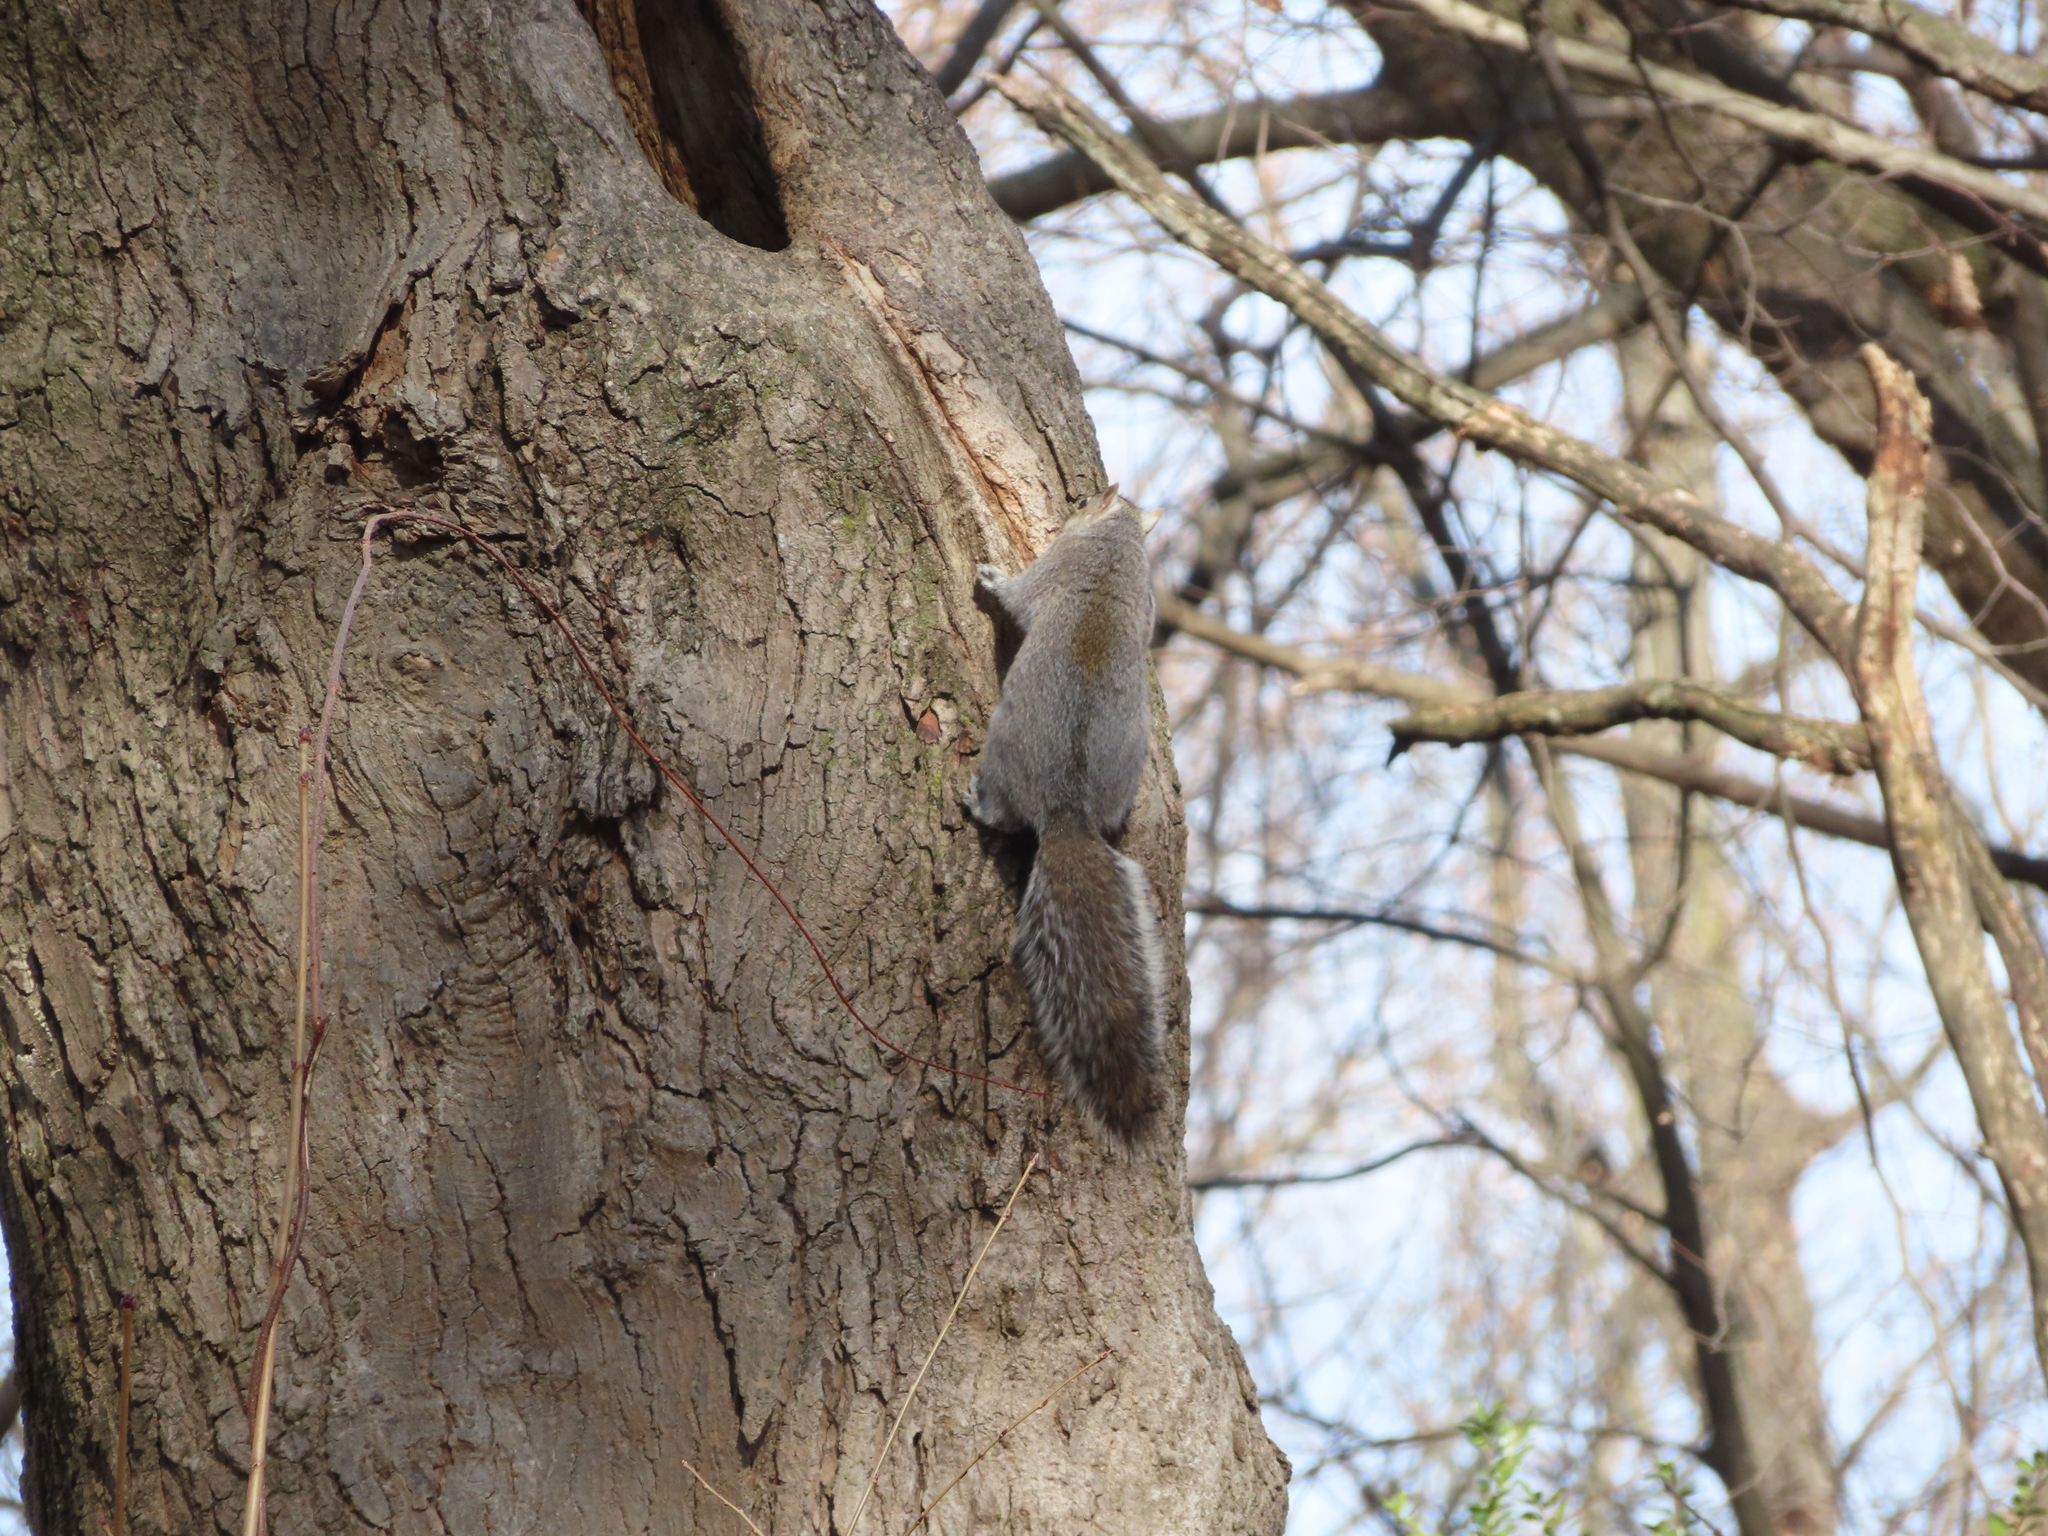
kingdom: Animalia
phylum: Chordata
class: Mammalia
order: Rodentia
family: Sciuridae
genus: Sciurus
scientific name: Sciurus carolinensis
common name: Eastern gray squirrel
